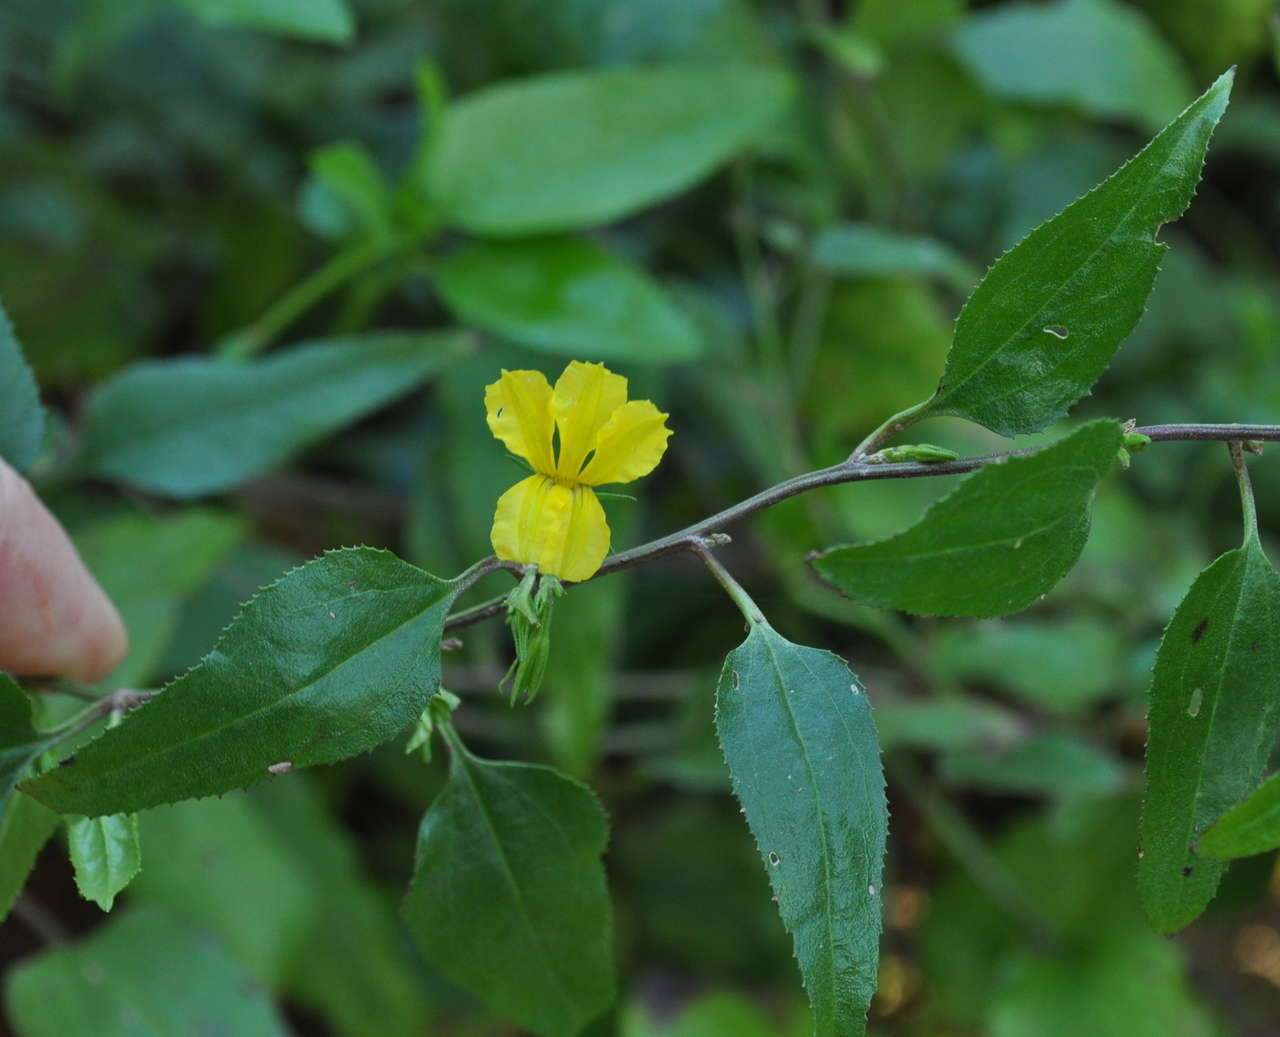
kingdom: Plantae
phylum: Tracheophyta
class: Magnoliopsida
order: Asterales
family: Goodeniaceae
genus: Goodenia
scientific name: Goodenia ovata
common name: Hop goodenia
